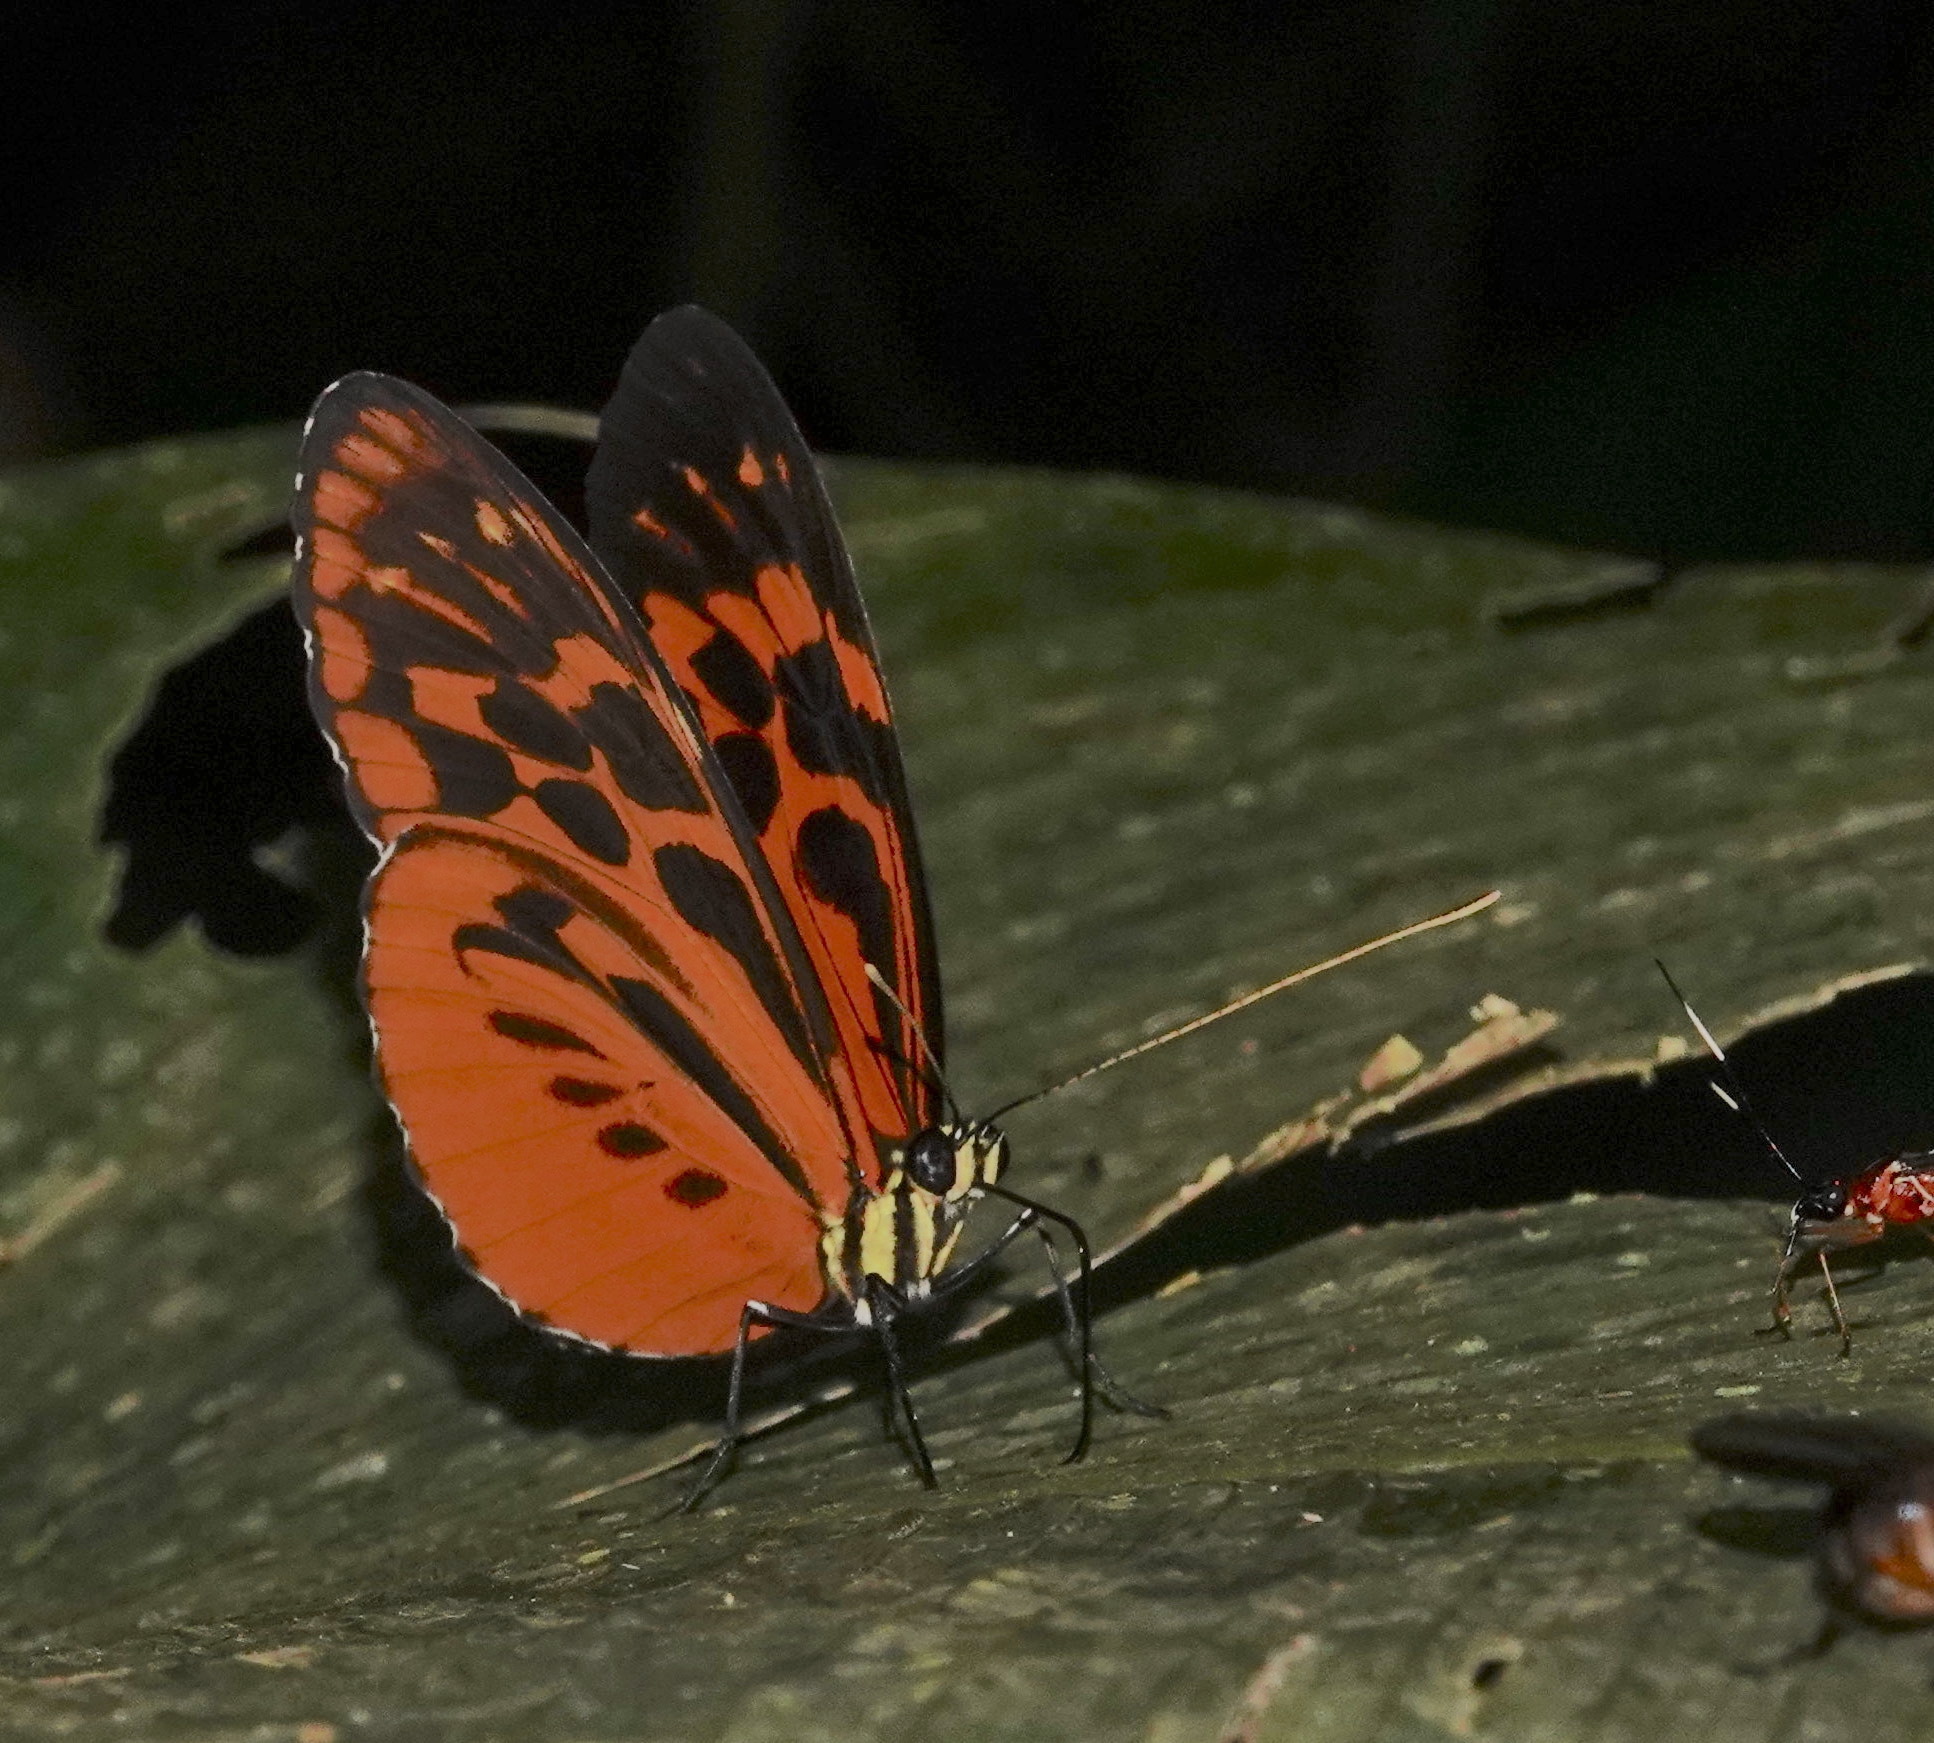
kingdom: Animalia
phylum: Arthropoda
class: Insecta
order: Lepidoptera
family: Nymphalidae
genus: Heliconius
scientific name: Heliconius pardalinus
